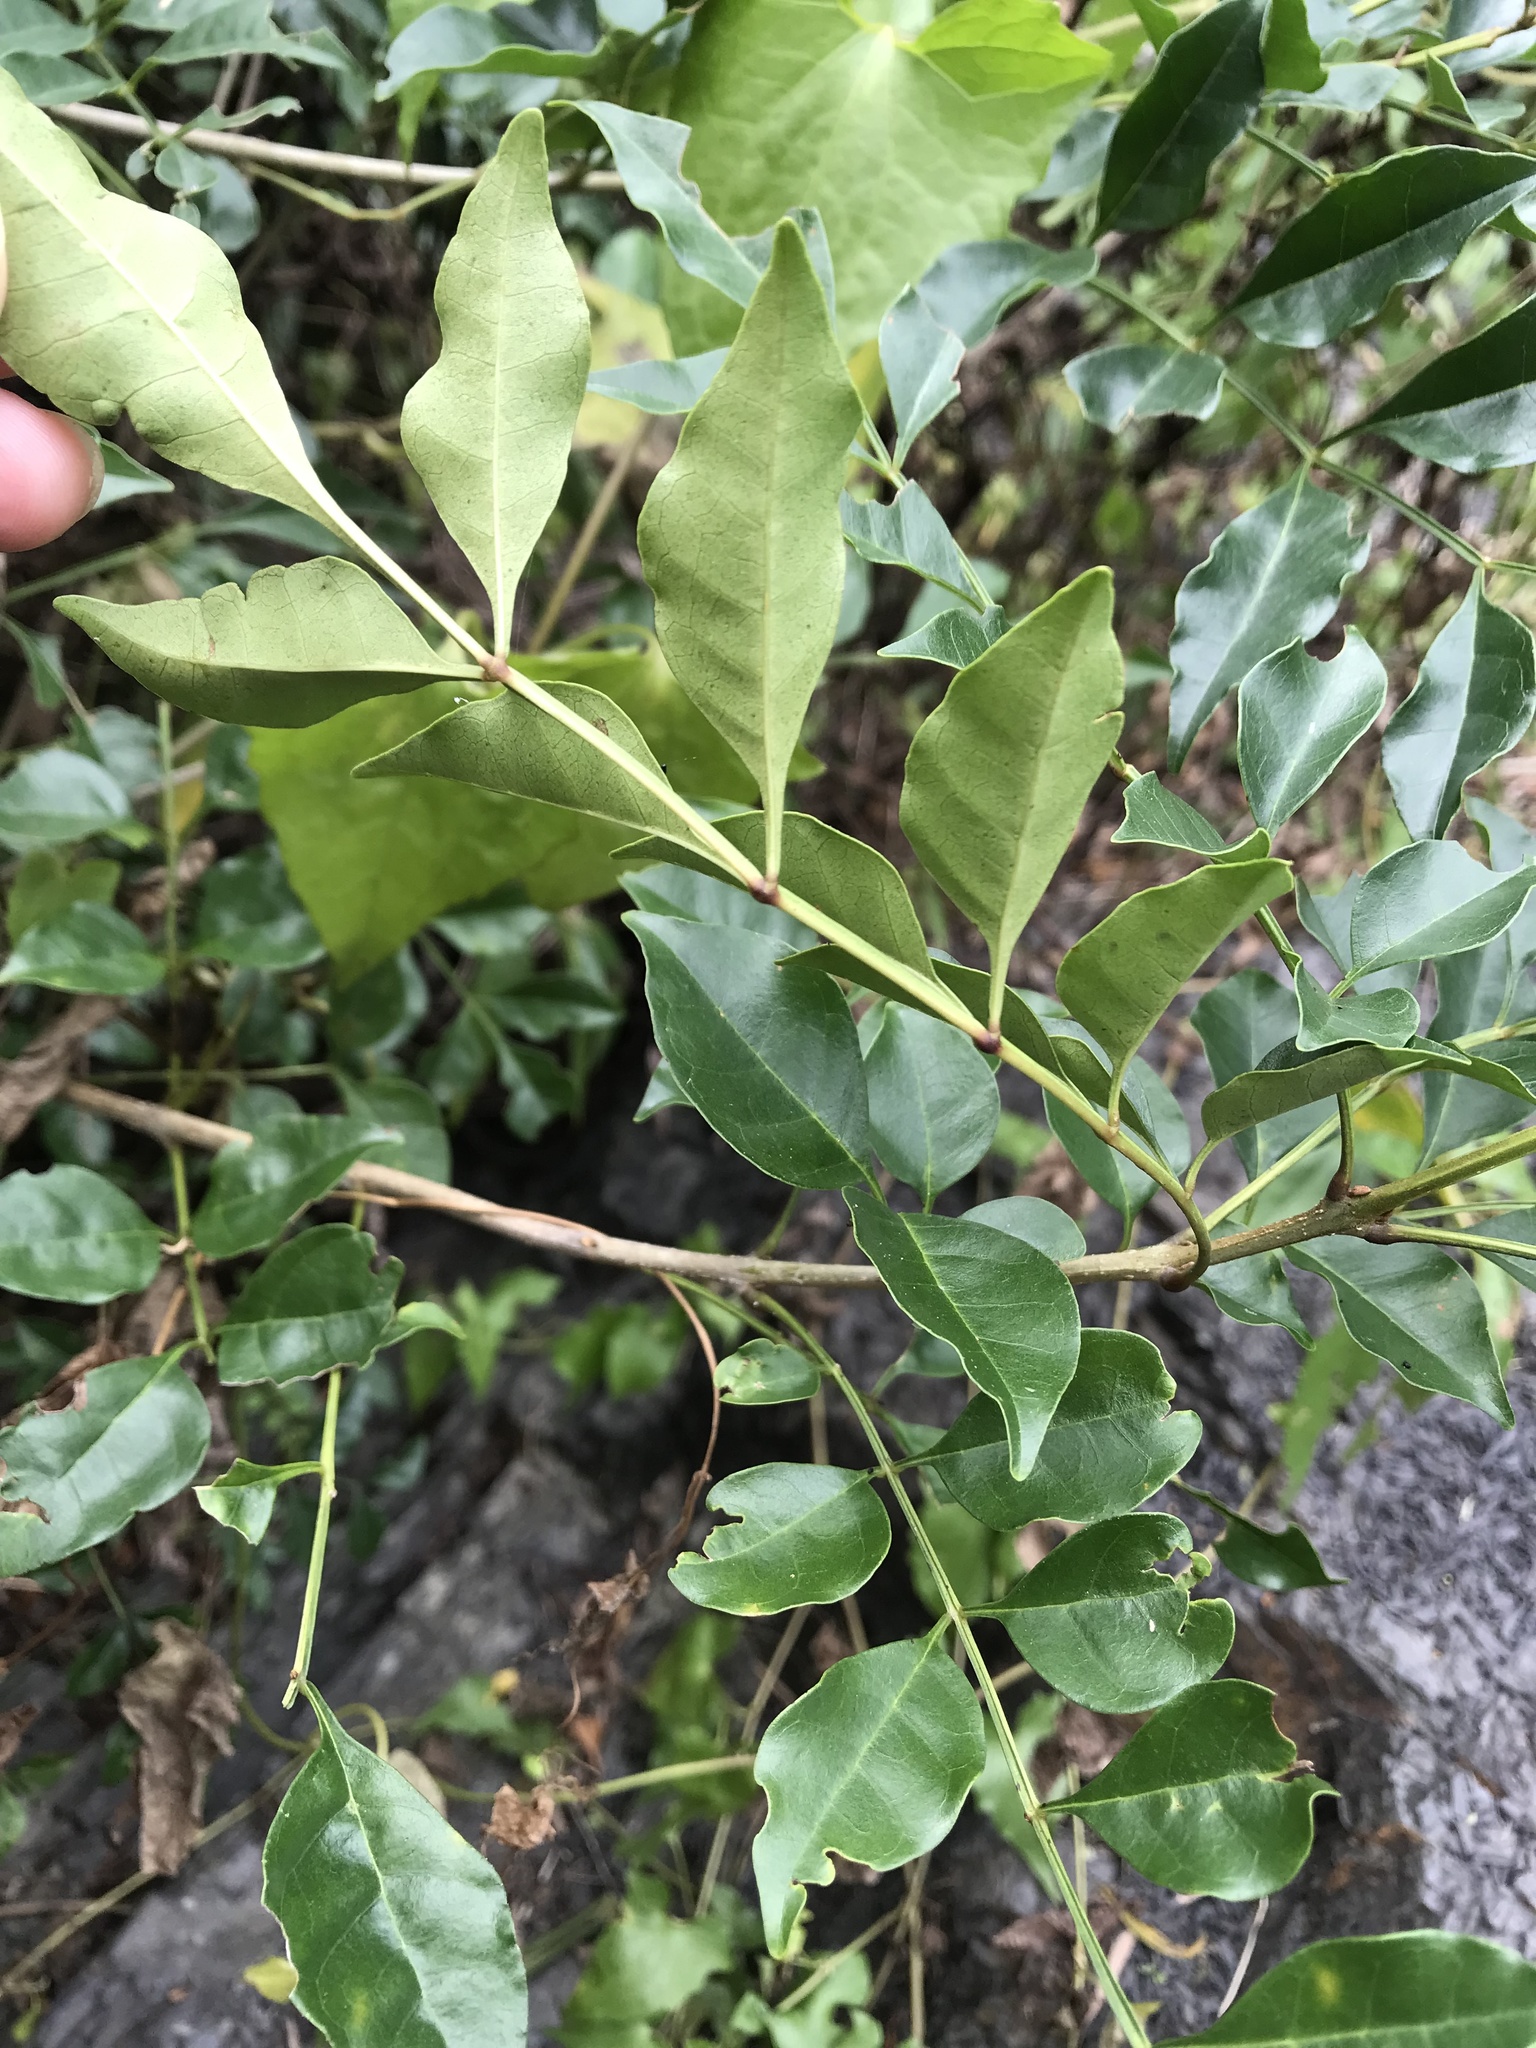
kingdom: Plantae
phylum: Tracheophyta
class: Magnoliopsida
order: Lamiales
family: Oleaceae
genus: Fraxinus
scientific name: Fraxinus griffithii
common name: Himalayan ash
